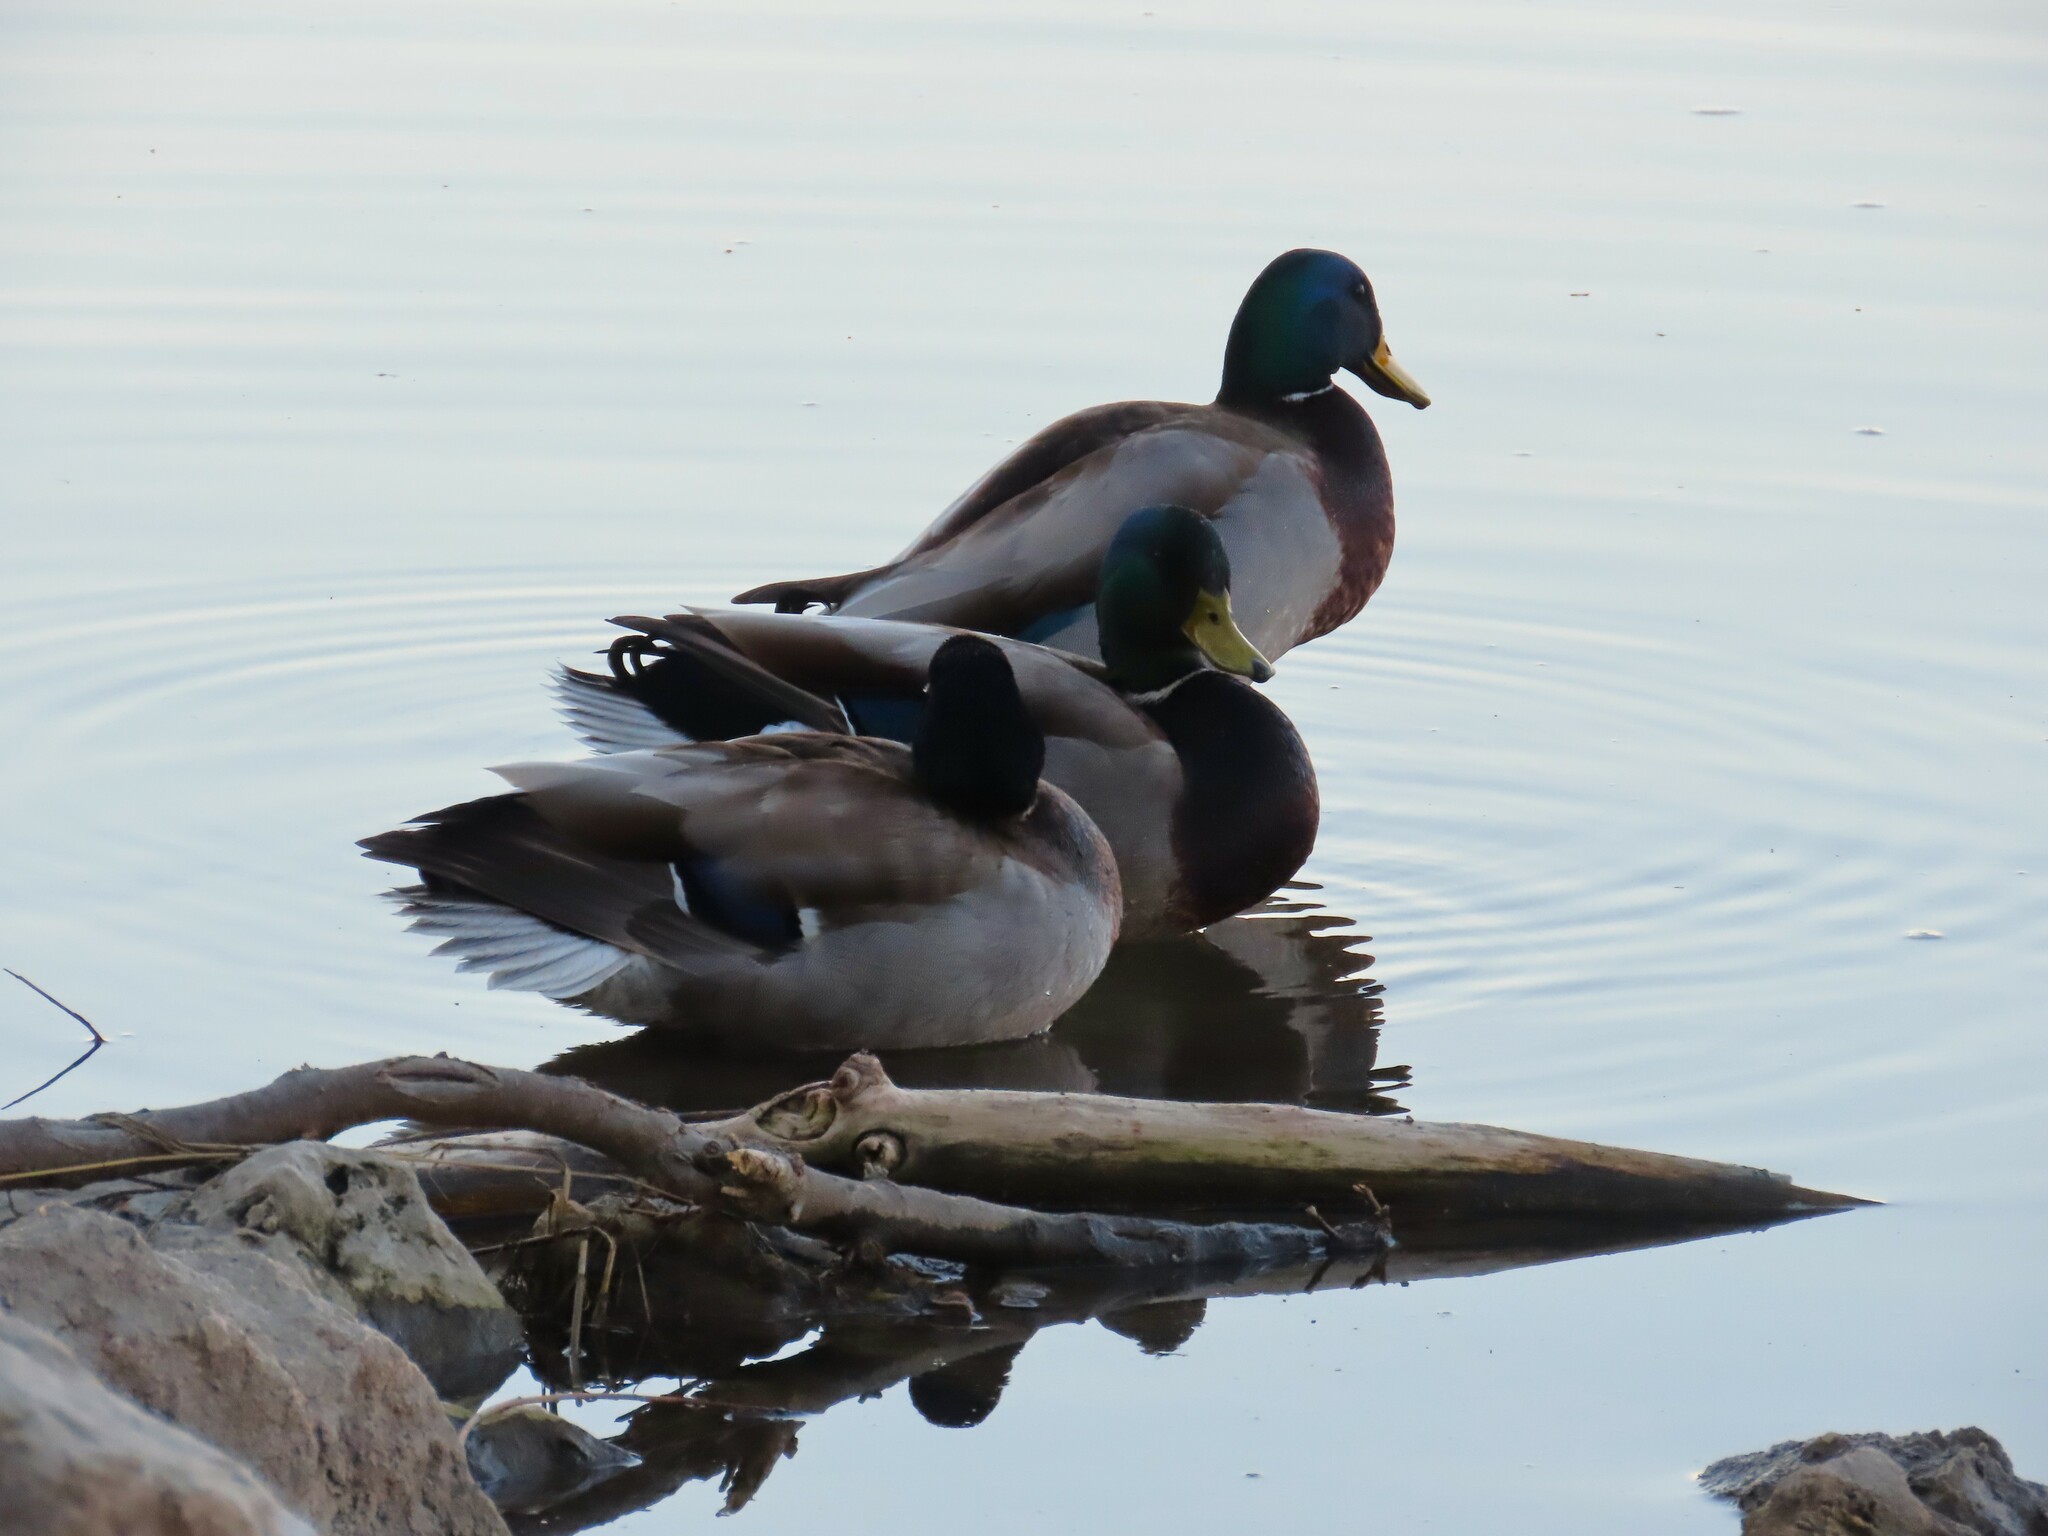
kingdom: Animalia
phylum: Chordata
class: Aves
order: Anseriformes
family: Anatidae
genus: Anas
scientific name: Anas platyrhynchos
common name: Mallard
